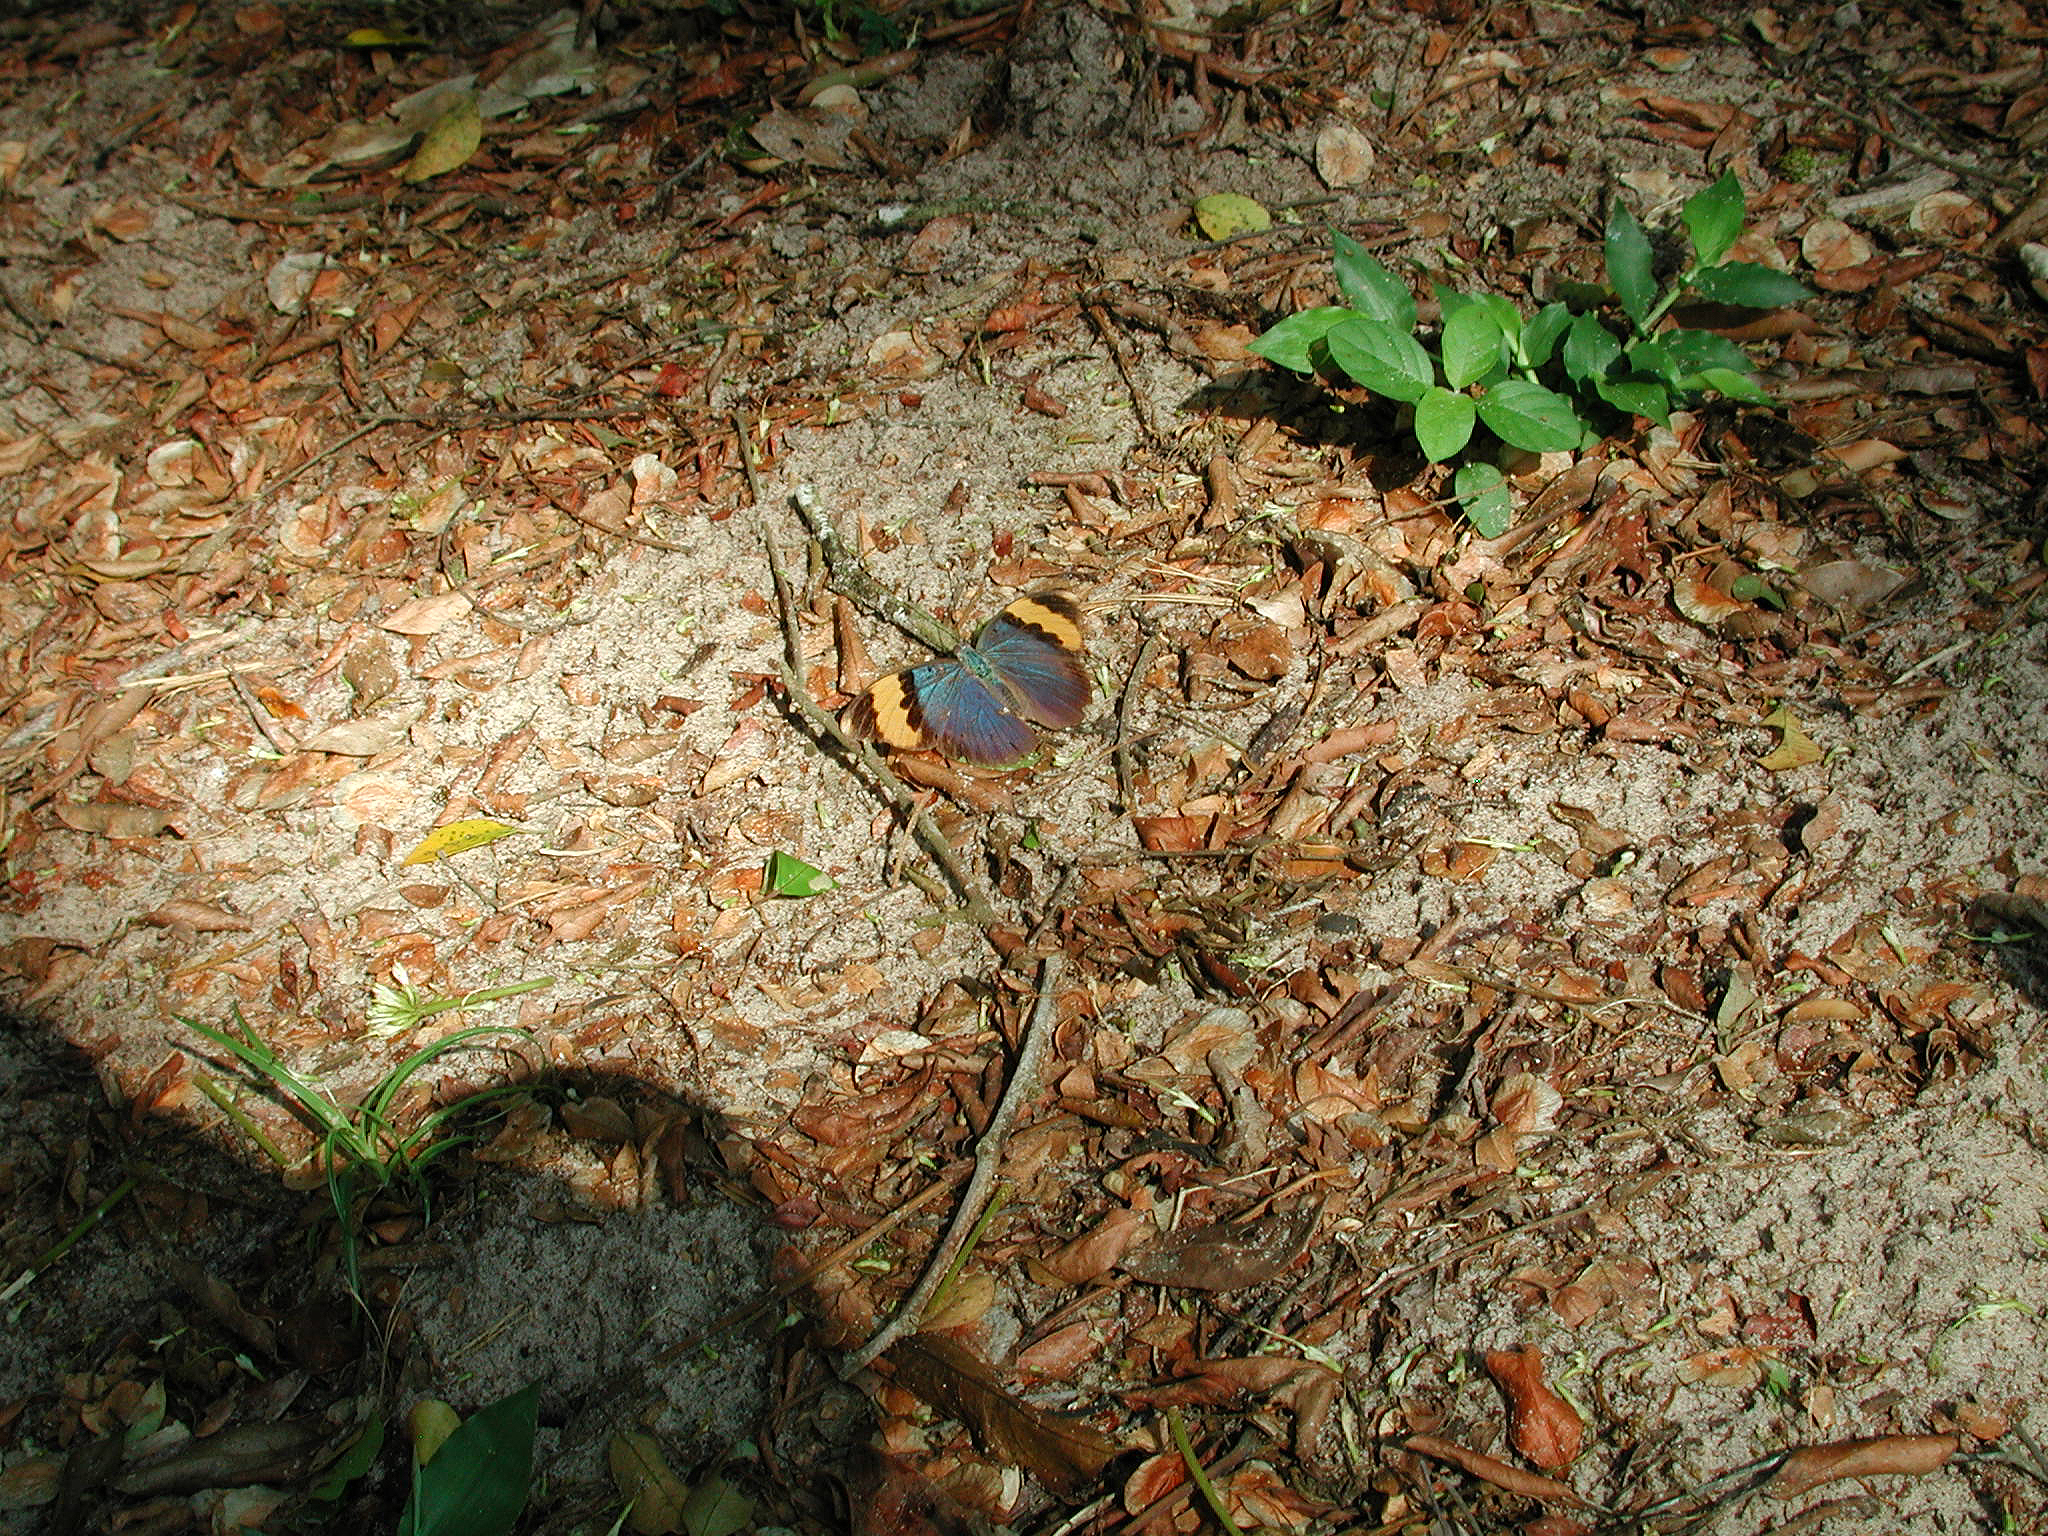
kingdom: Animalia
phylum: Arthropoda
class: Insecta
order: Lepidoptera
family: Nymphalidae
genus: Euphaedra
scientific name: Euphaedra neophron
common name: Gold-banded forester
